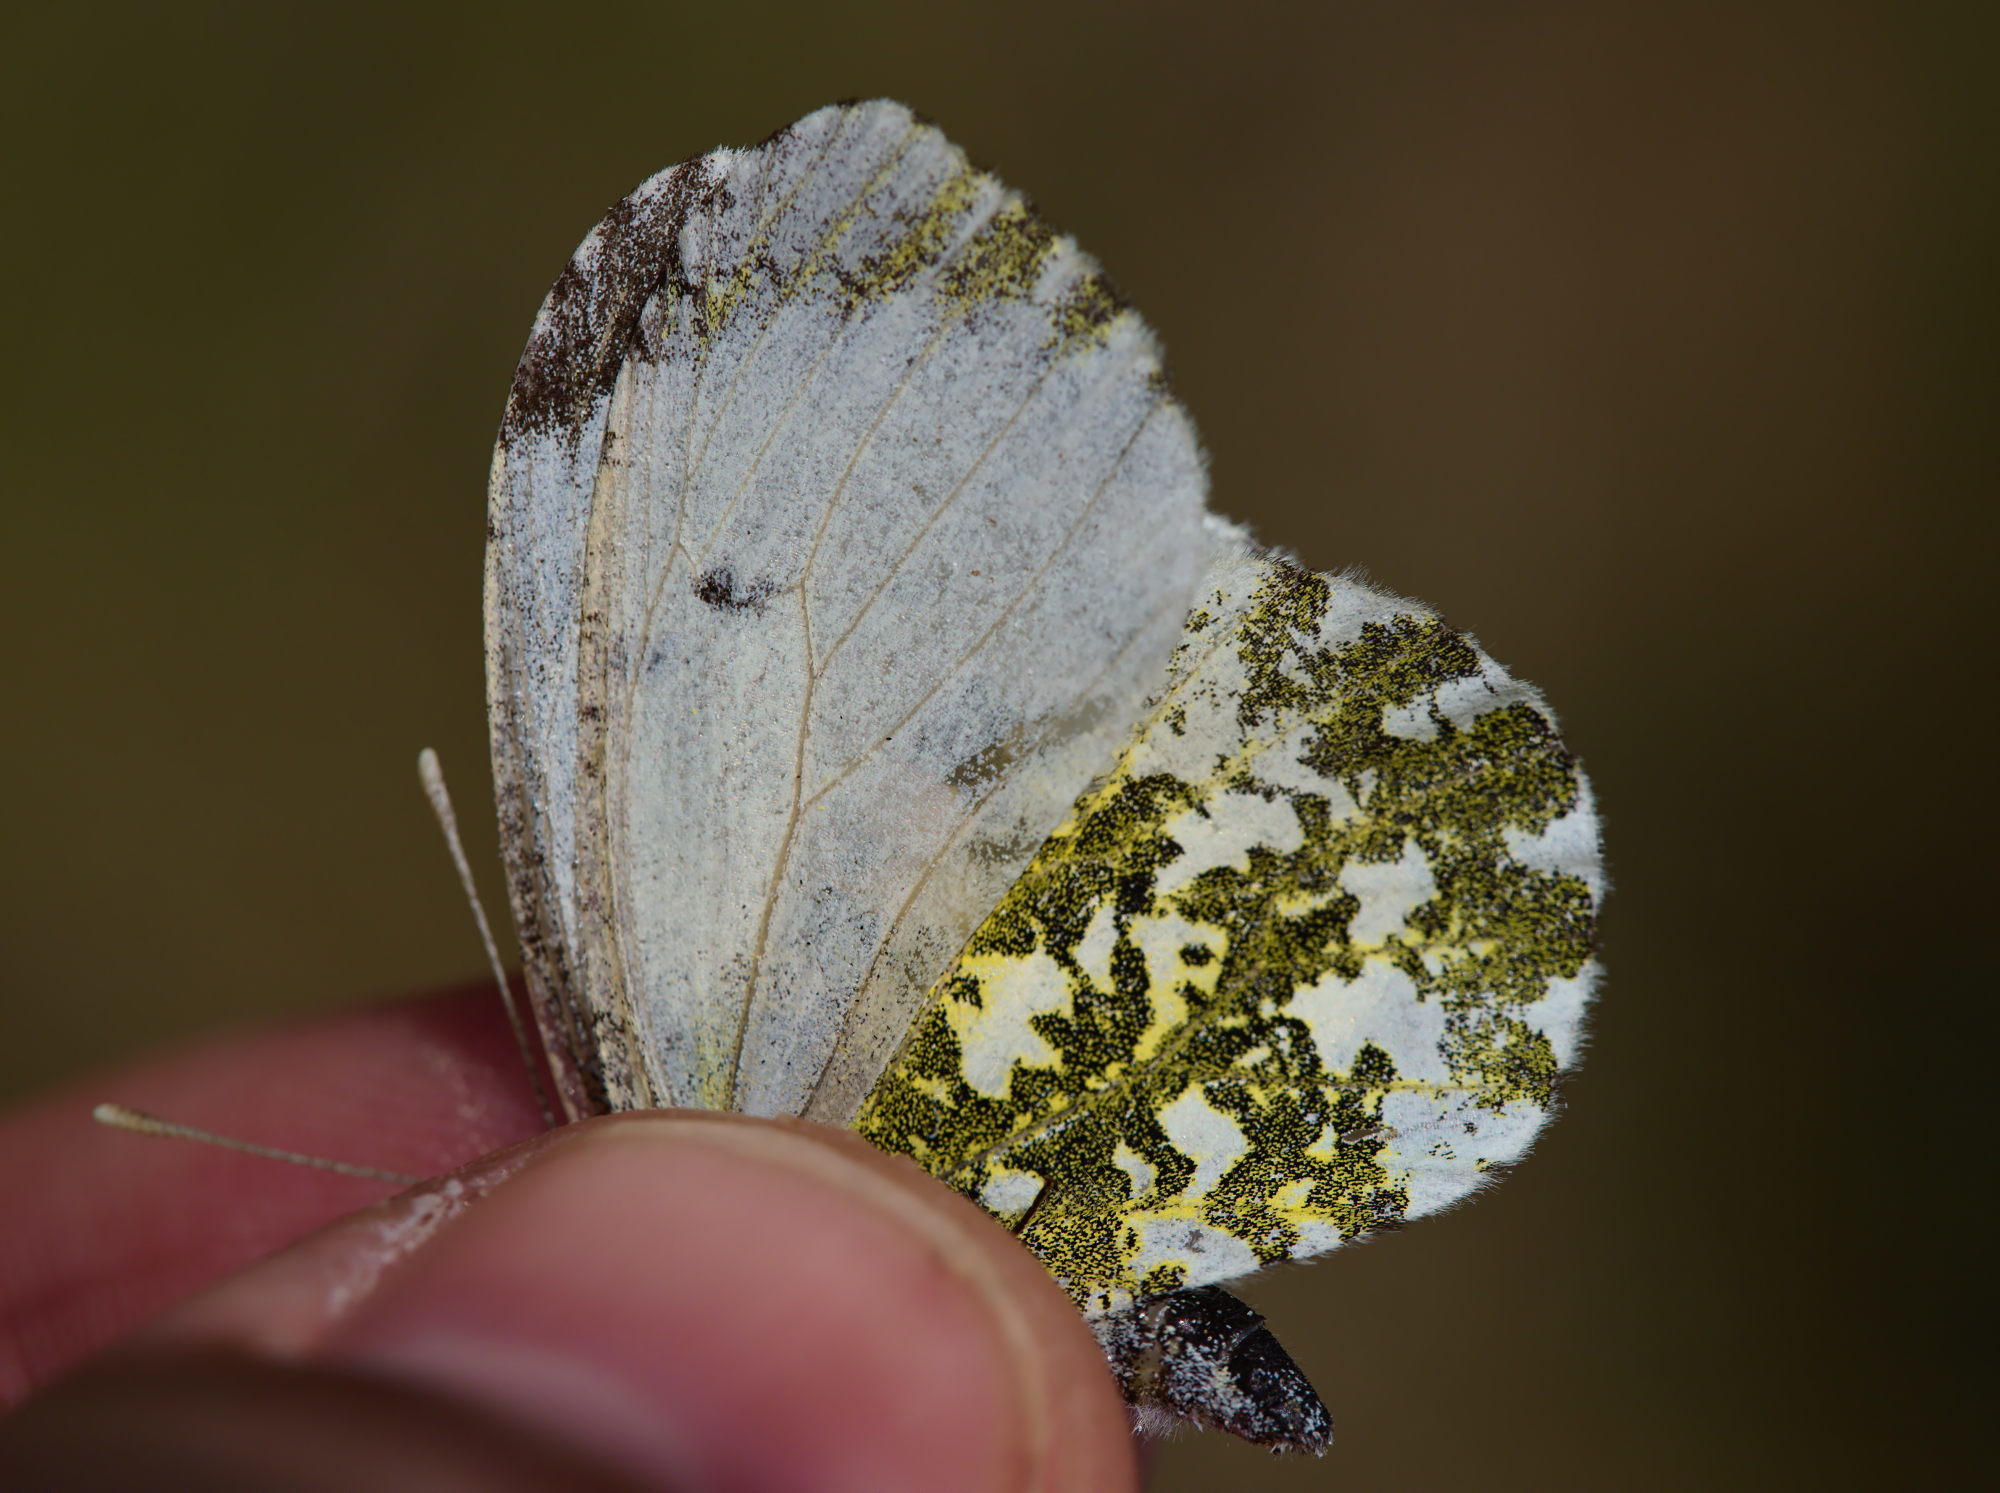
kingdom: Animalia
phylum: Arthropoda
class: Insecta
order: Lepidoptera
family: Pieridae
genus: Anthocharis
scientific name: Anthocharis cardamines
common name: Orange-tip
